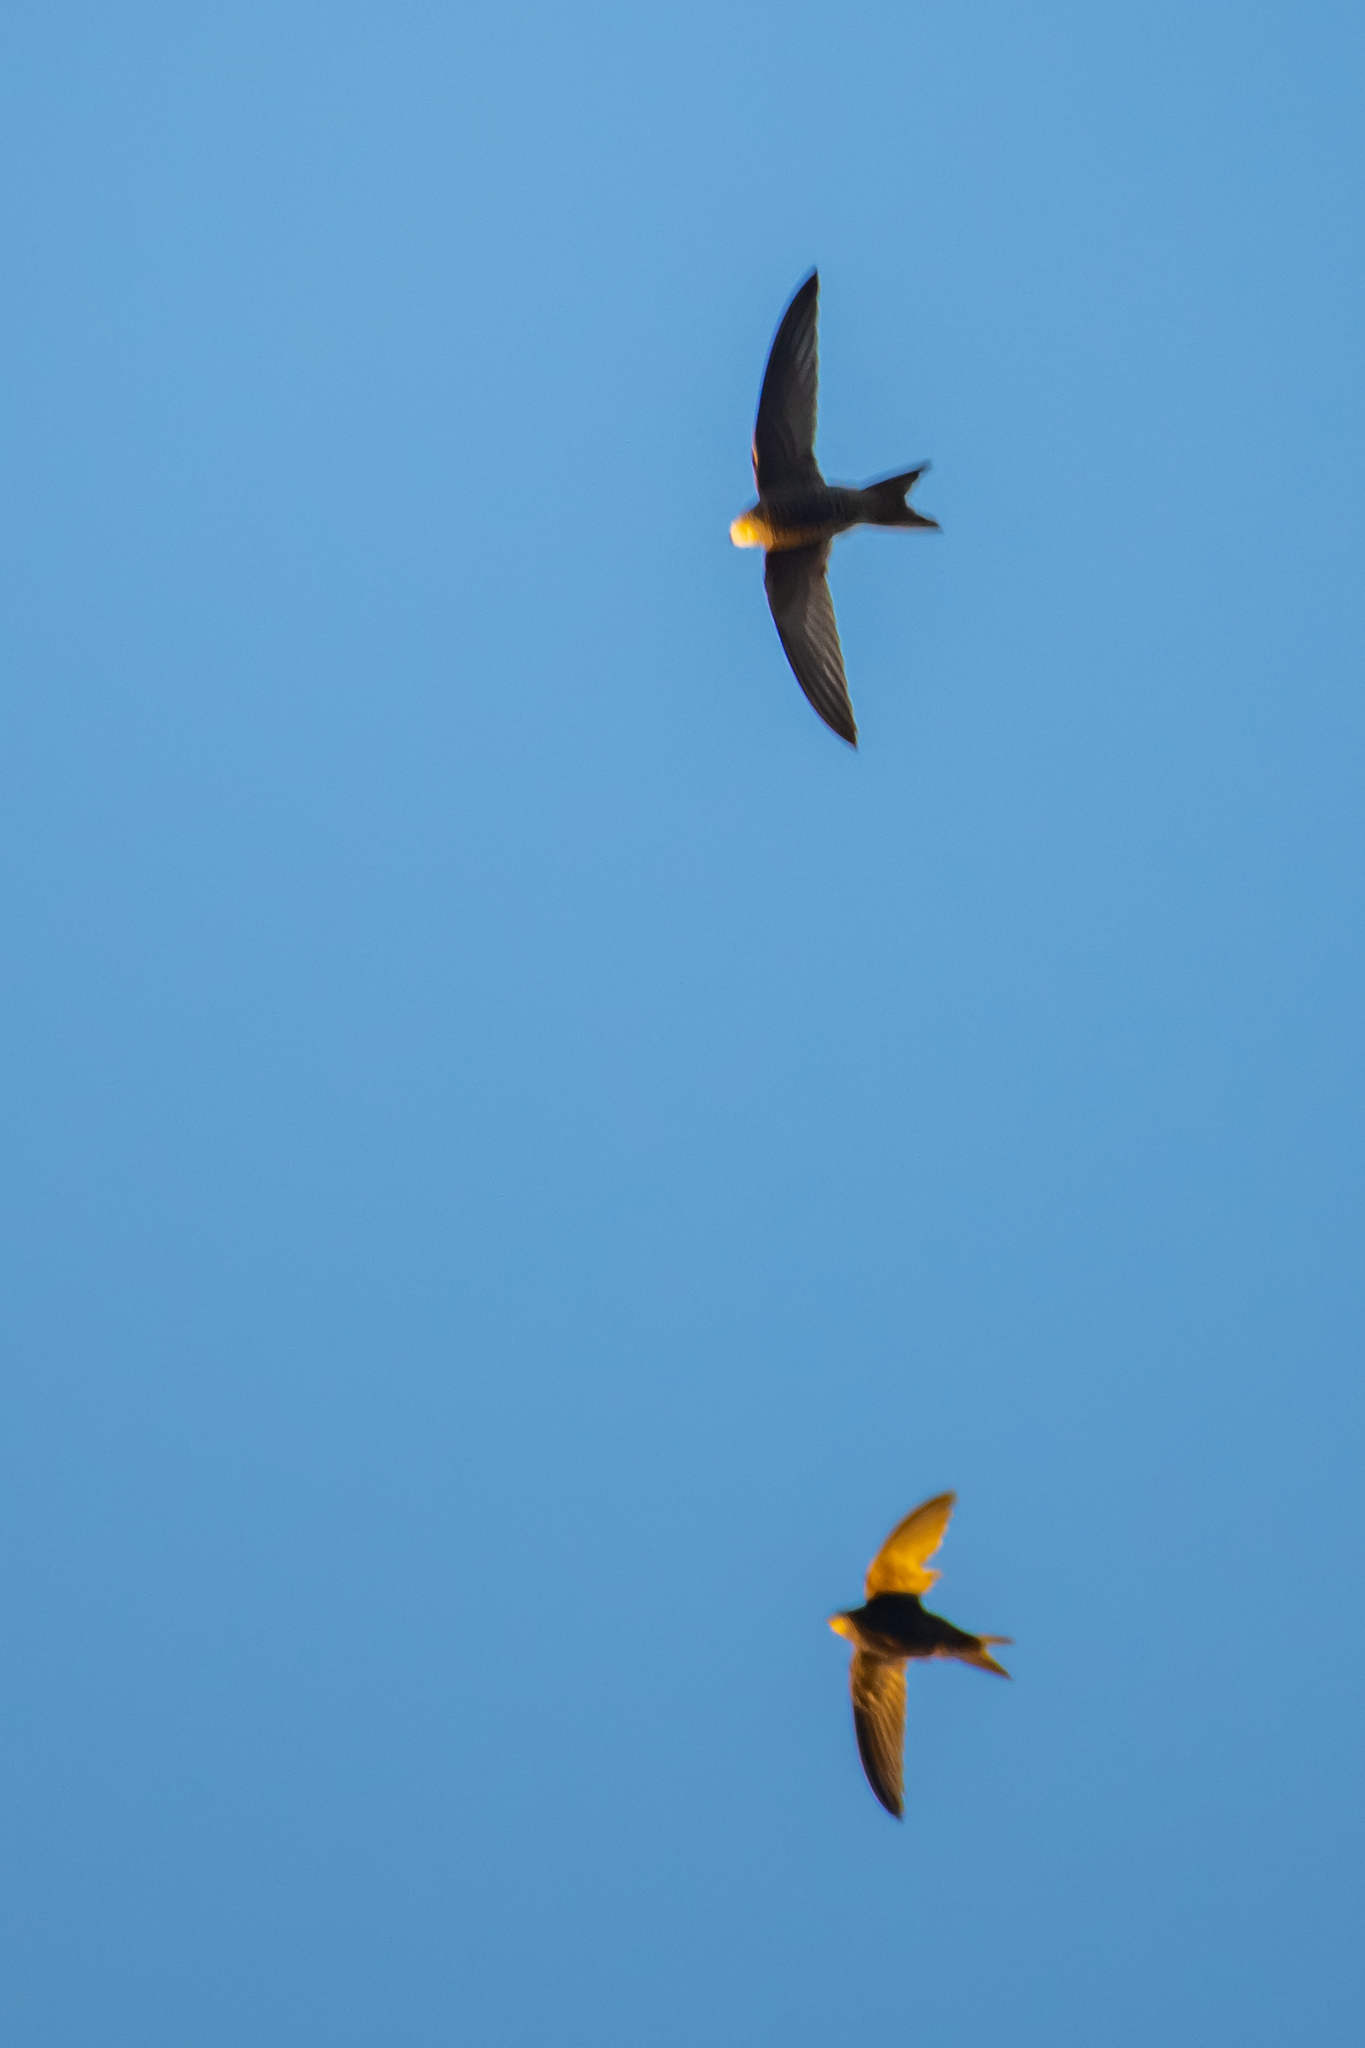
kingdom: Animalia
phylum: Chordata
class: Aves
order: Apodiformes
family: Apodidae
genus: Apus
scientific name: Apus pallidus
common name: Pallid swift
